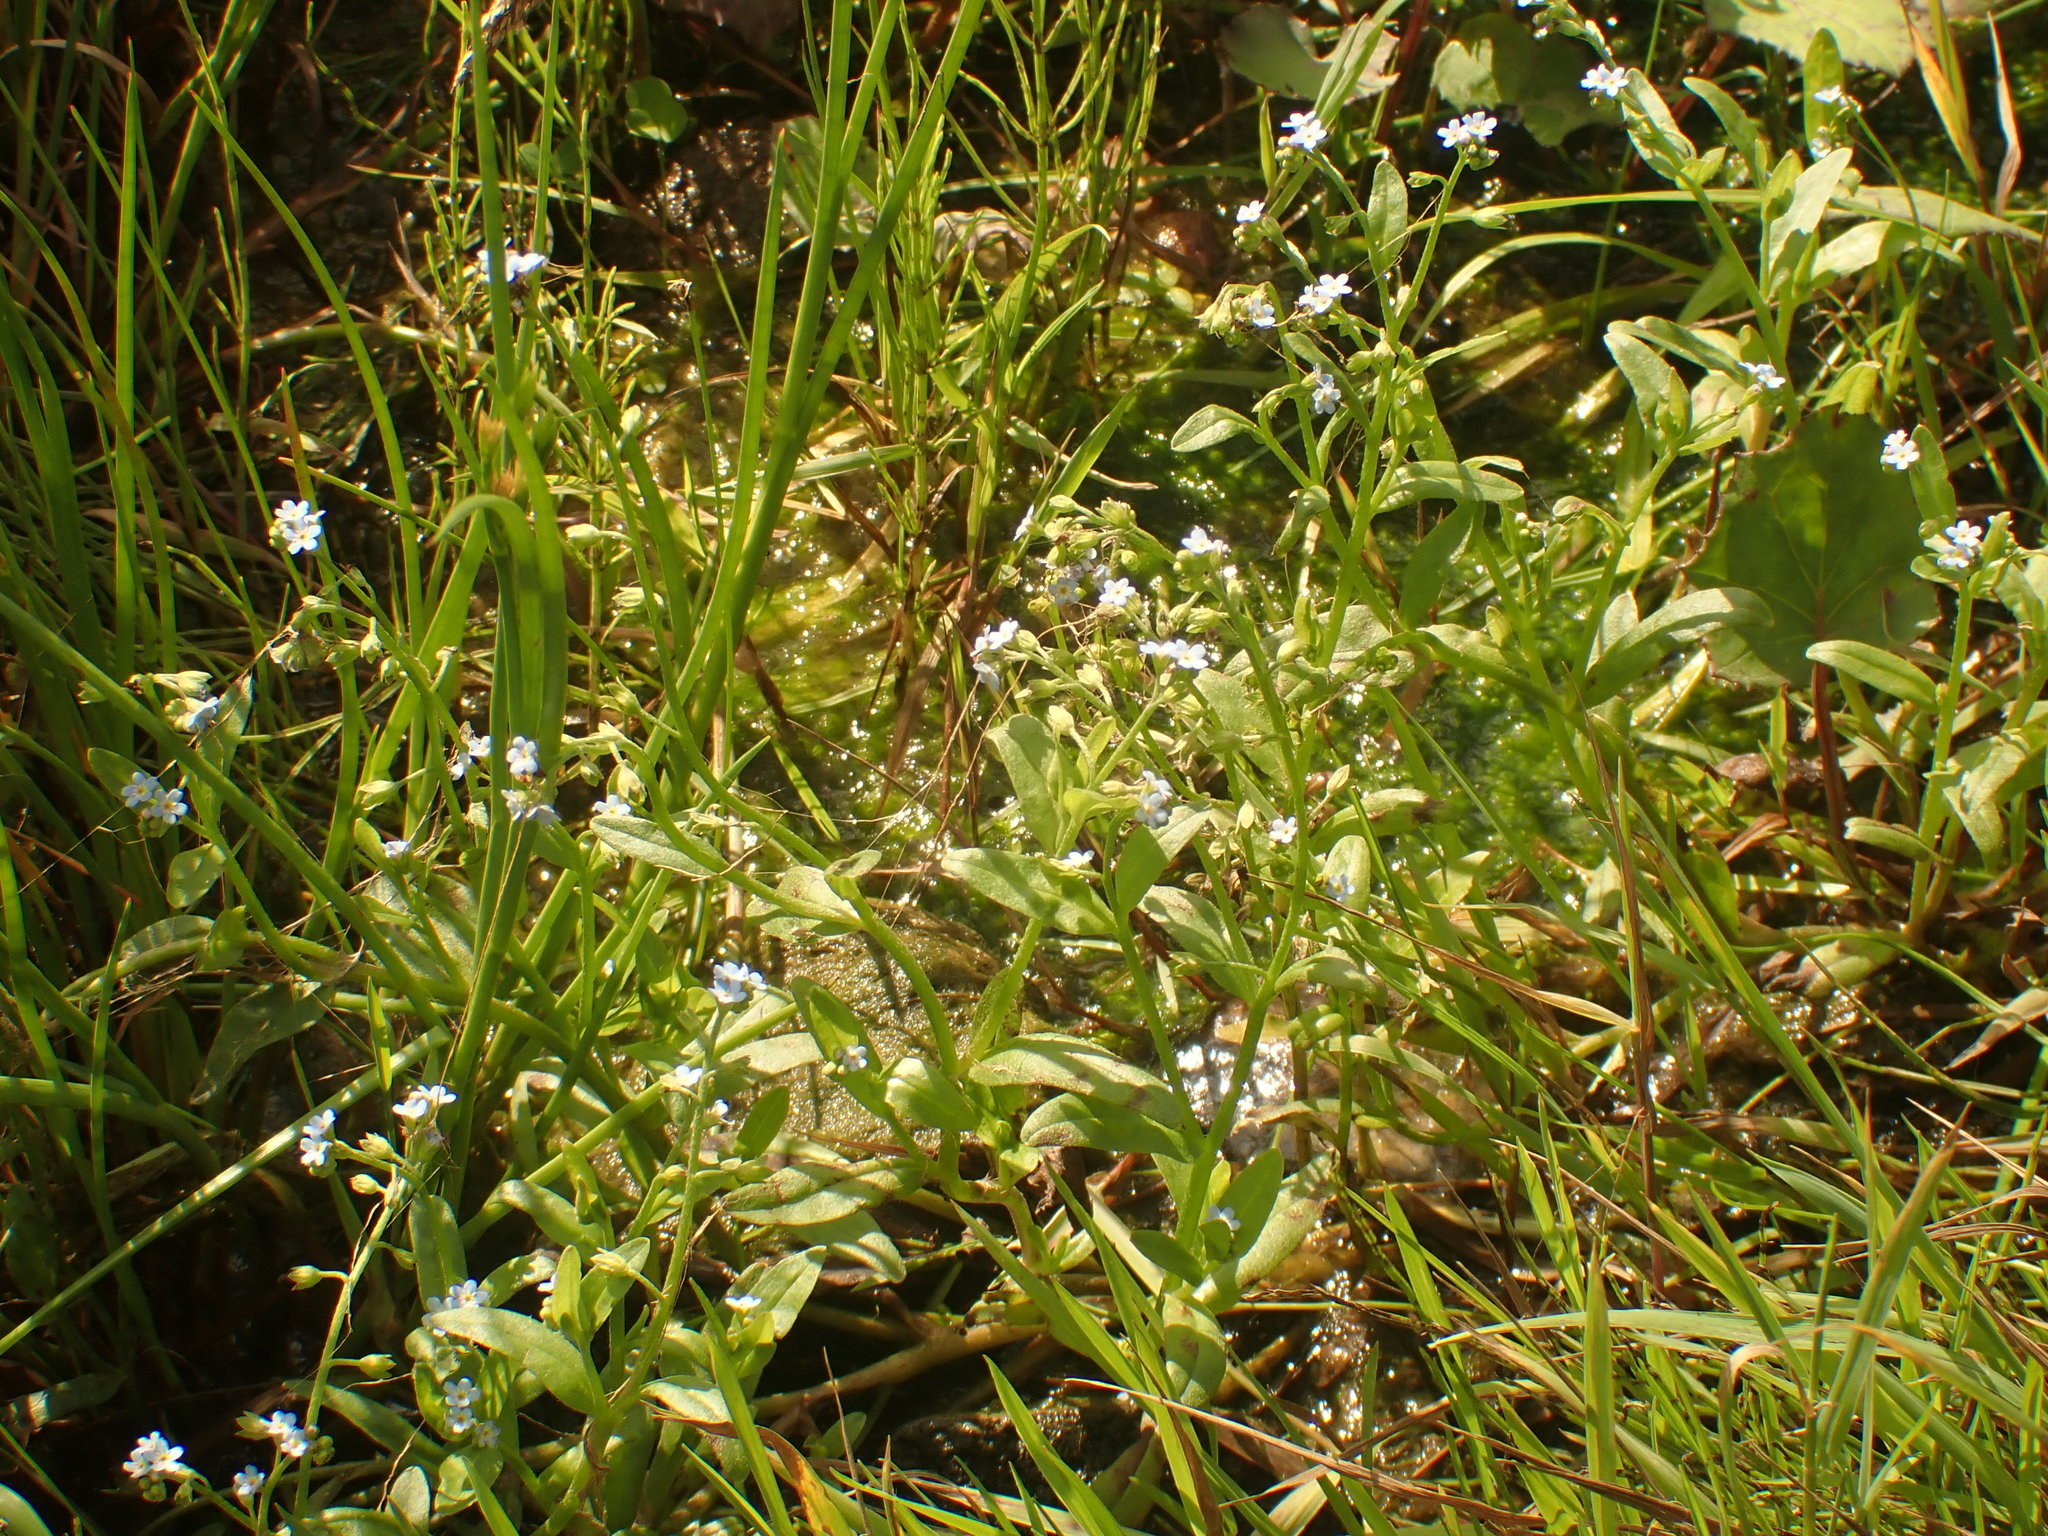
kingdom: Plantae
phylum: Tracheophyta
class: Magnoliopsida
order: Boraginales
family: Boraginaceae
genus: Myosotis
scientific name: Myosotis laxa
